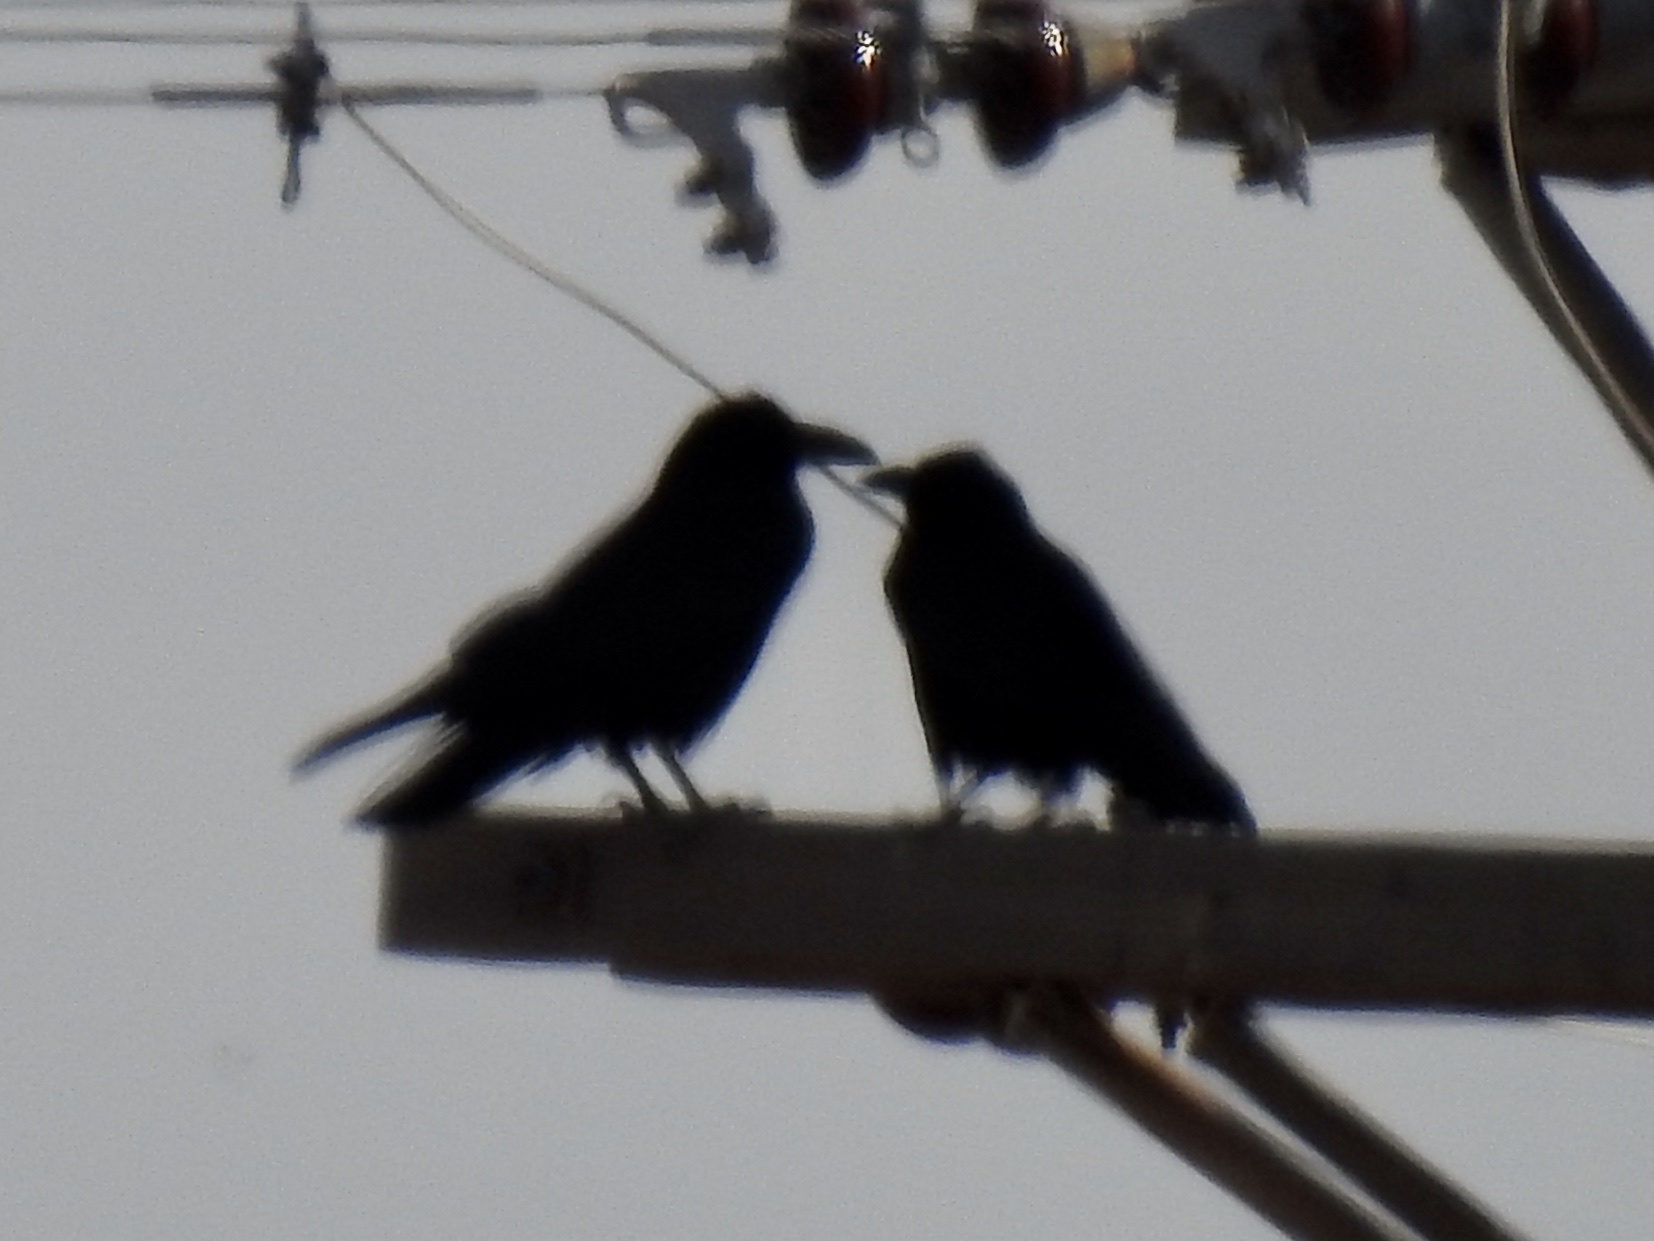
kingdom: Animalia
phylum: Chordata
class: Aves
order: Passeriformes
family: Corvidae
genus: Corvus
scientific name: Corvus corax
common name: Common raven
